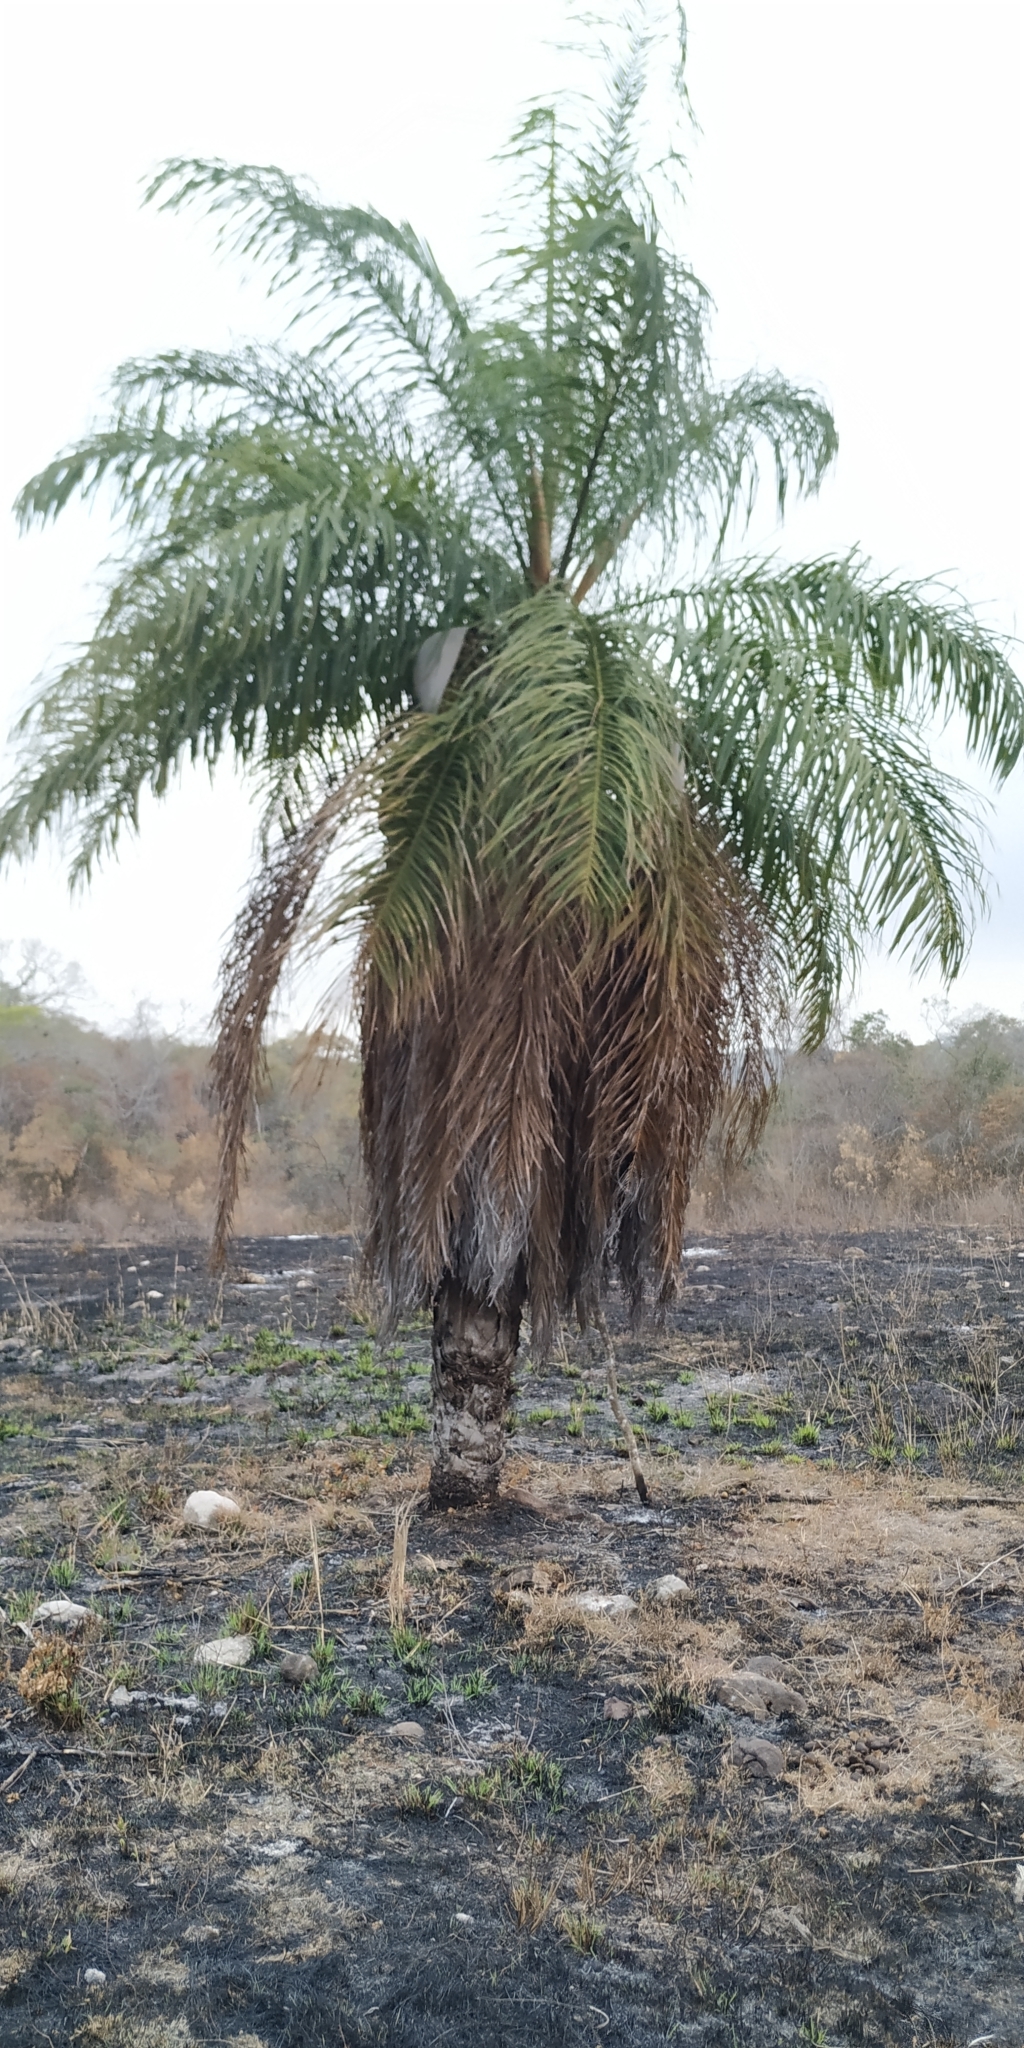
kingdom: Plantae
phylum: Tracheophyta
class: Liliopsida
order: Arecales
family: Arecaceae
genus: Acrocomia
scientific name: Acrocomia aculeata
